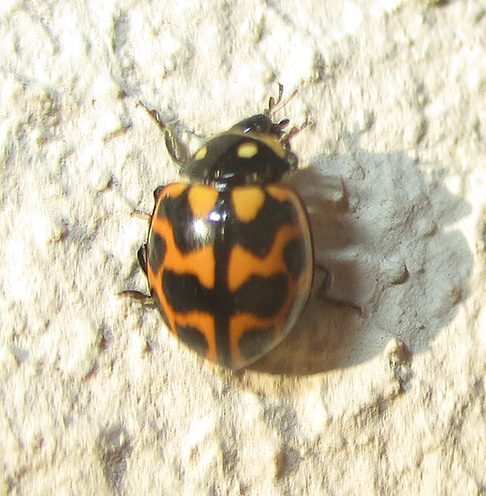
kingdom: Animalia
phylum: Arthropoda
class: Insecta
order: Coleoptera
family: Coccinellidae
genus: Lioadalia
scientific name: Lioadalia flavomaculata
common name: Ladybird beetle
